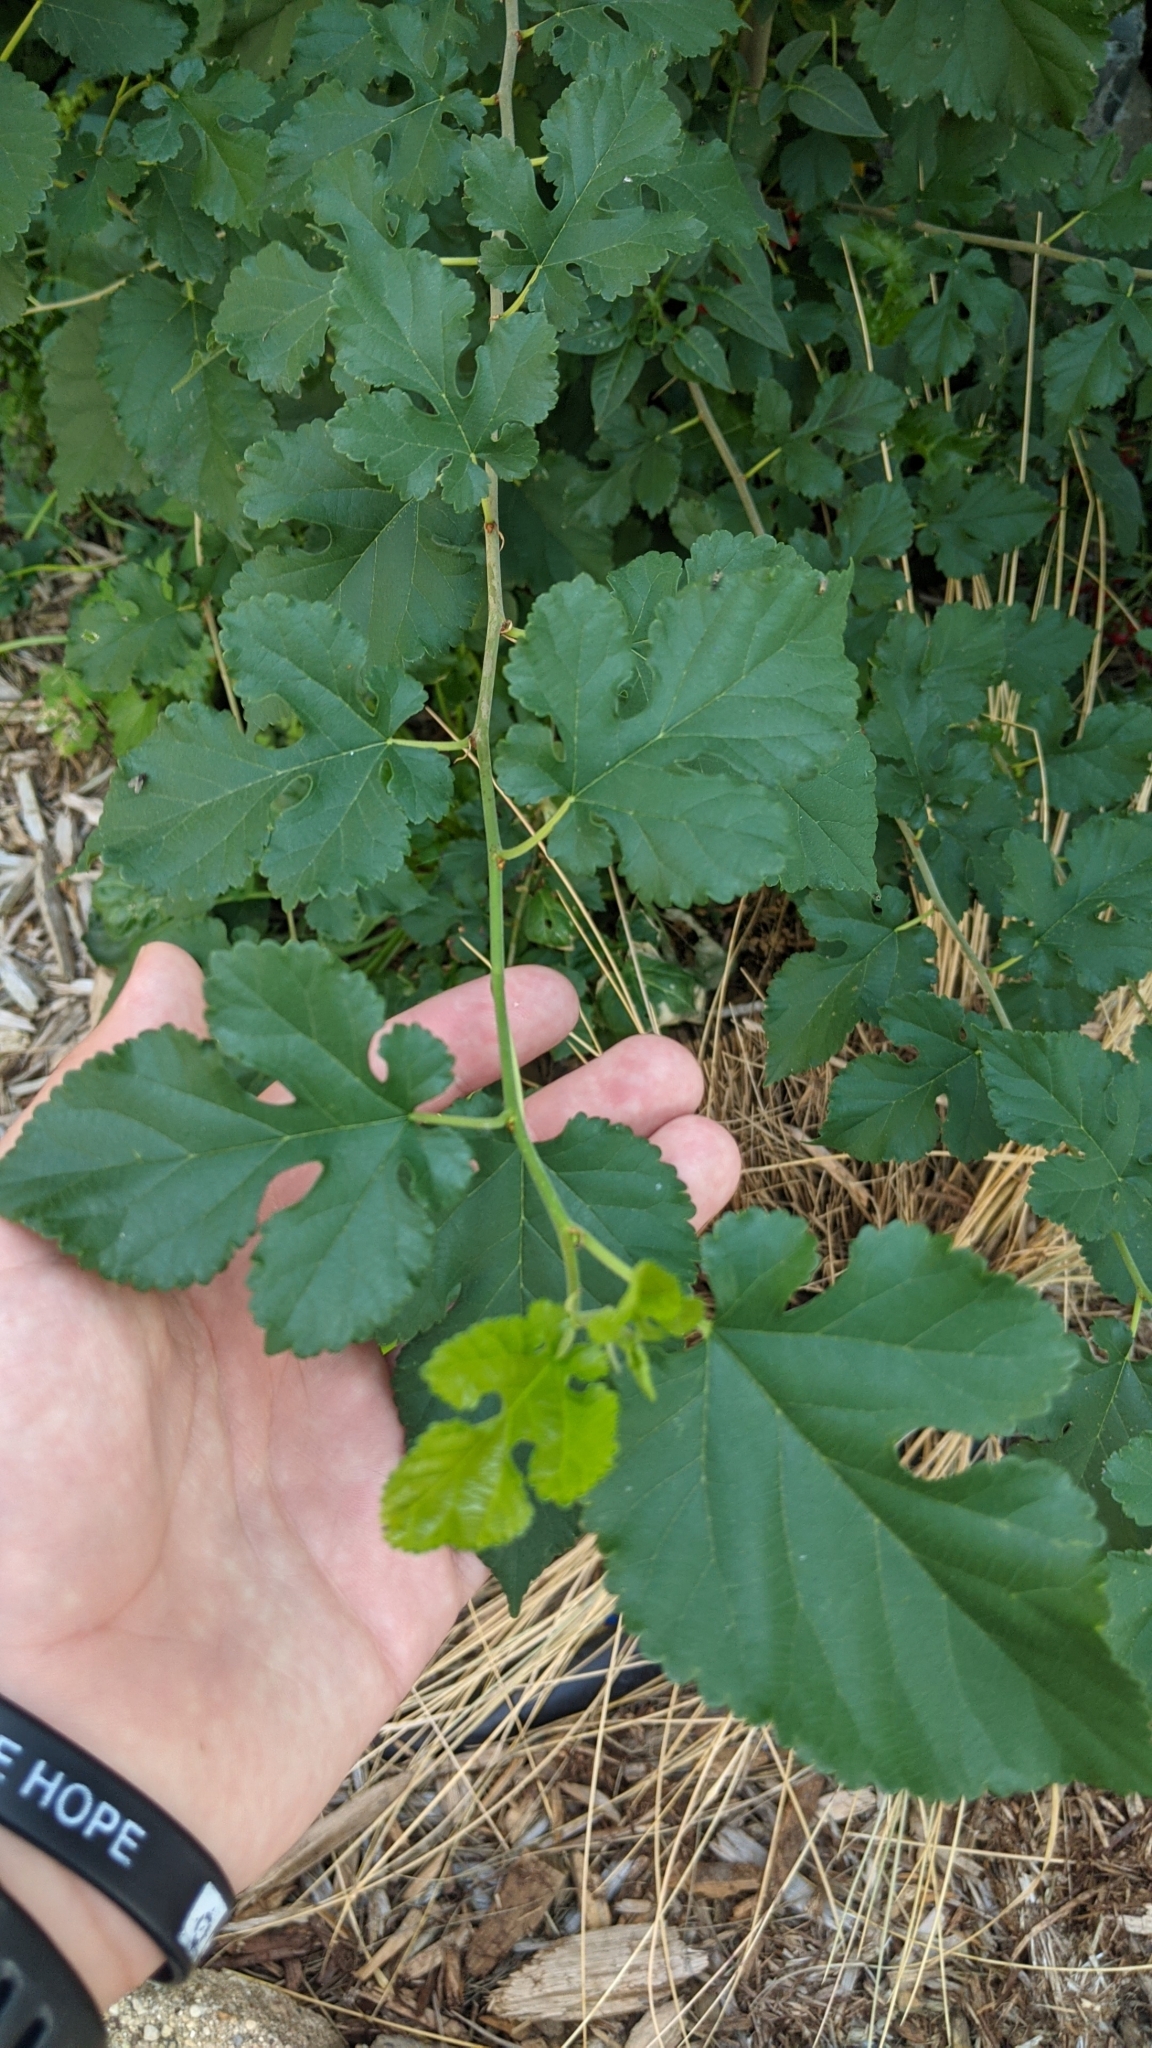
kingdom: Plantae
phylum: Tracheophyta
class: Magnoliopsida
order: Rosales
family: Moraceae
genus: Morus
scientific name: Morus alba
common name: White mulberry
